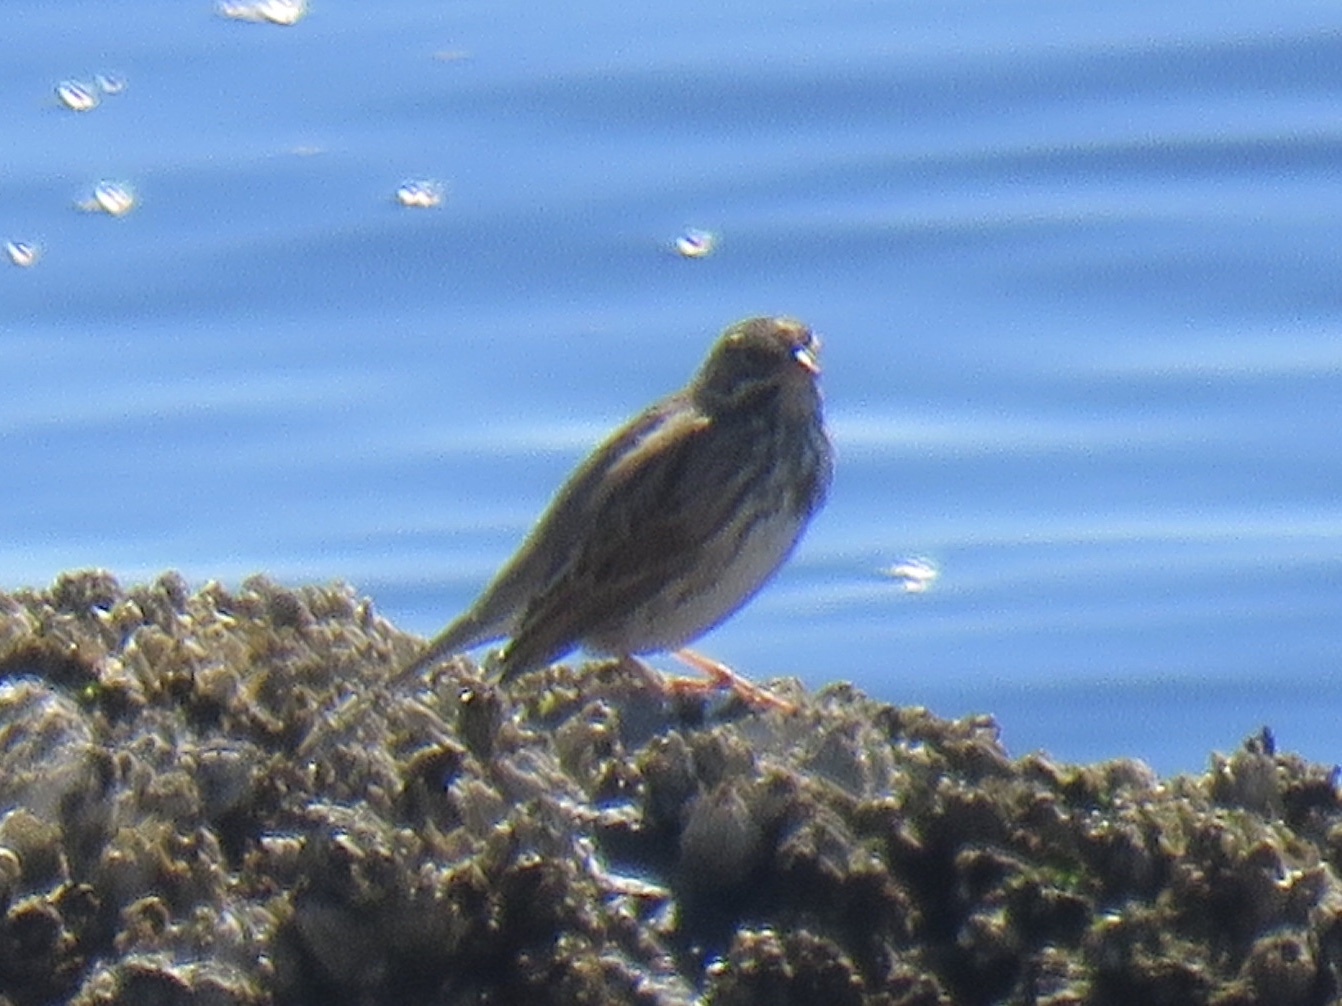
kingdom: Animalia
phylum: Chordata
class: Aves
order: Passeriformes
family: Passerellidae
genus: Passerculus
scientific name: Passerculus sandwichensis
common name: Savannah sparrow
